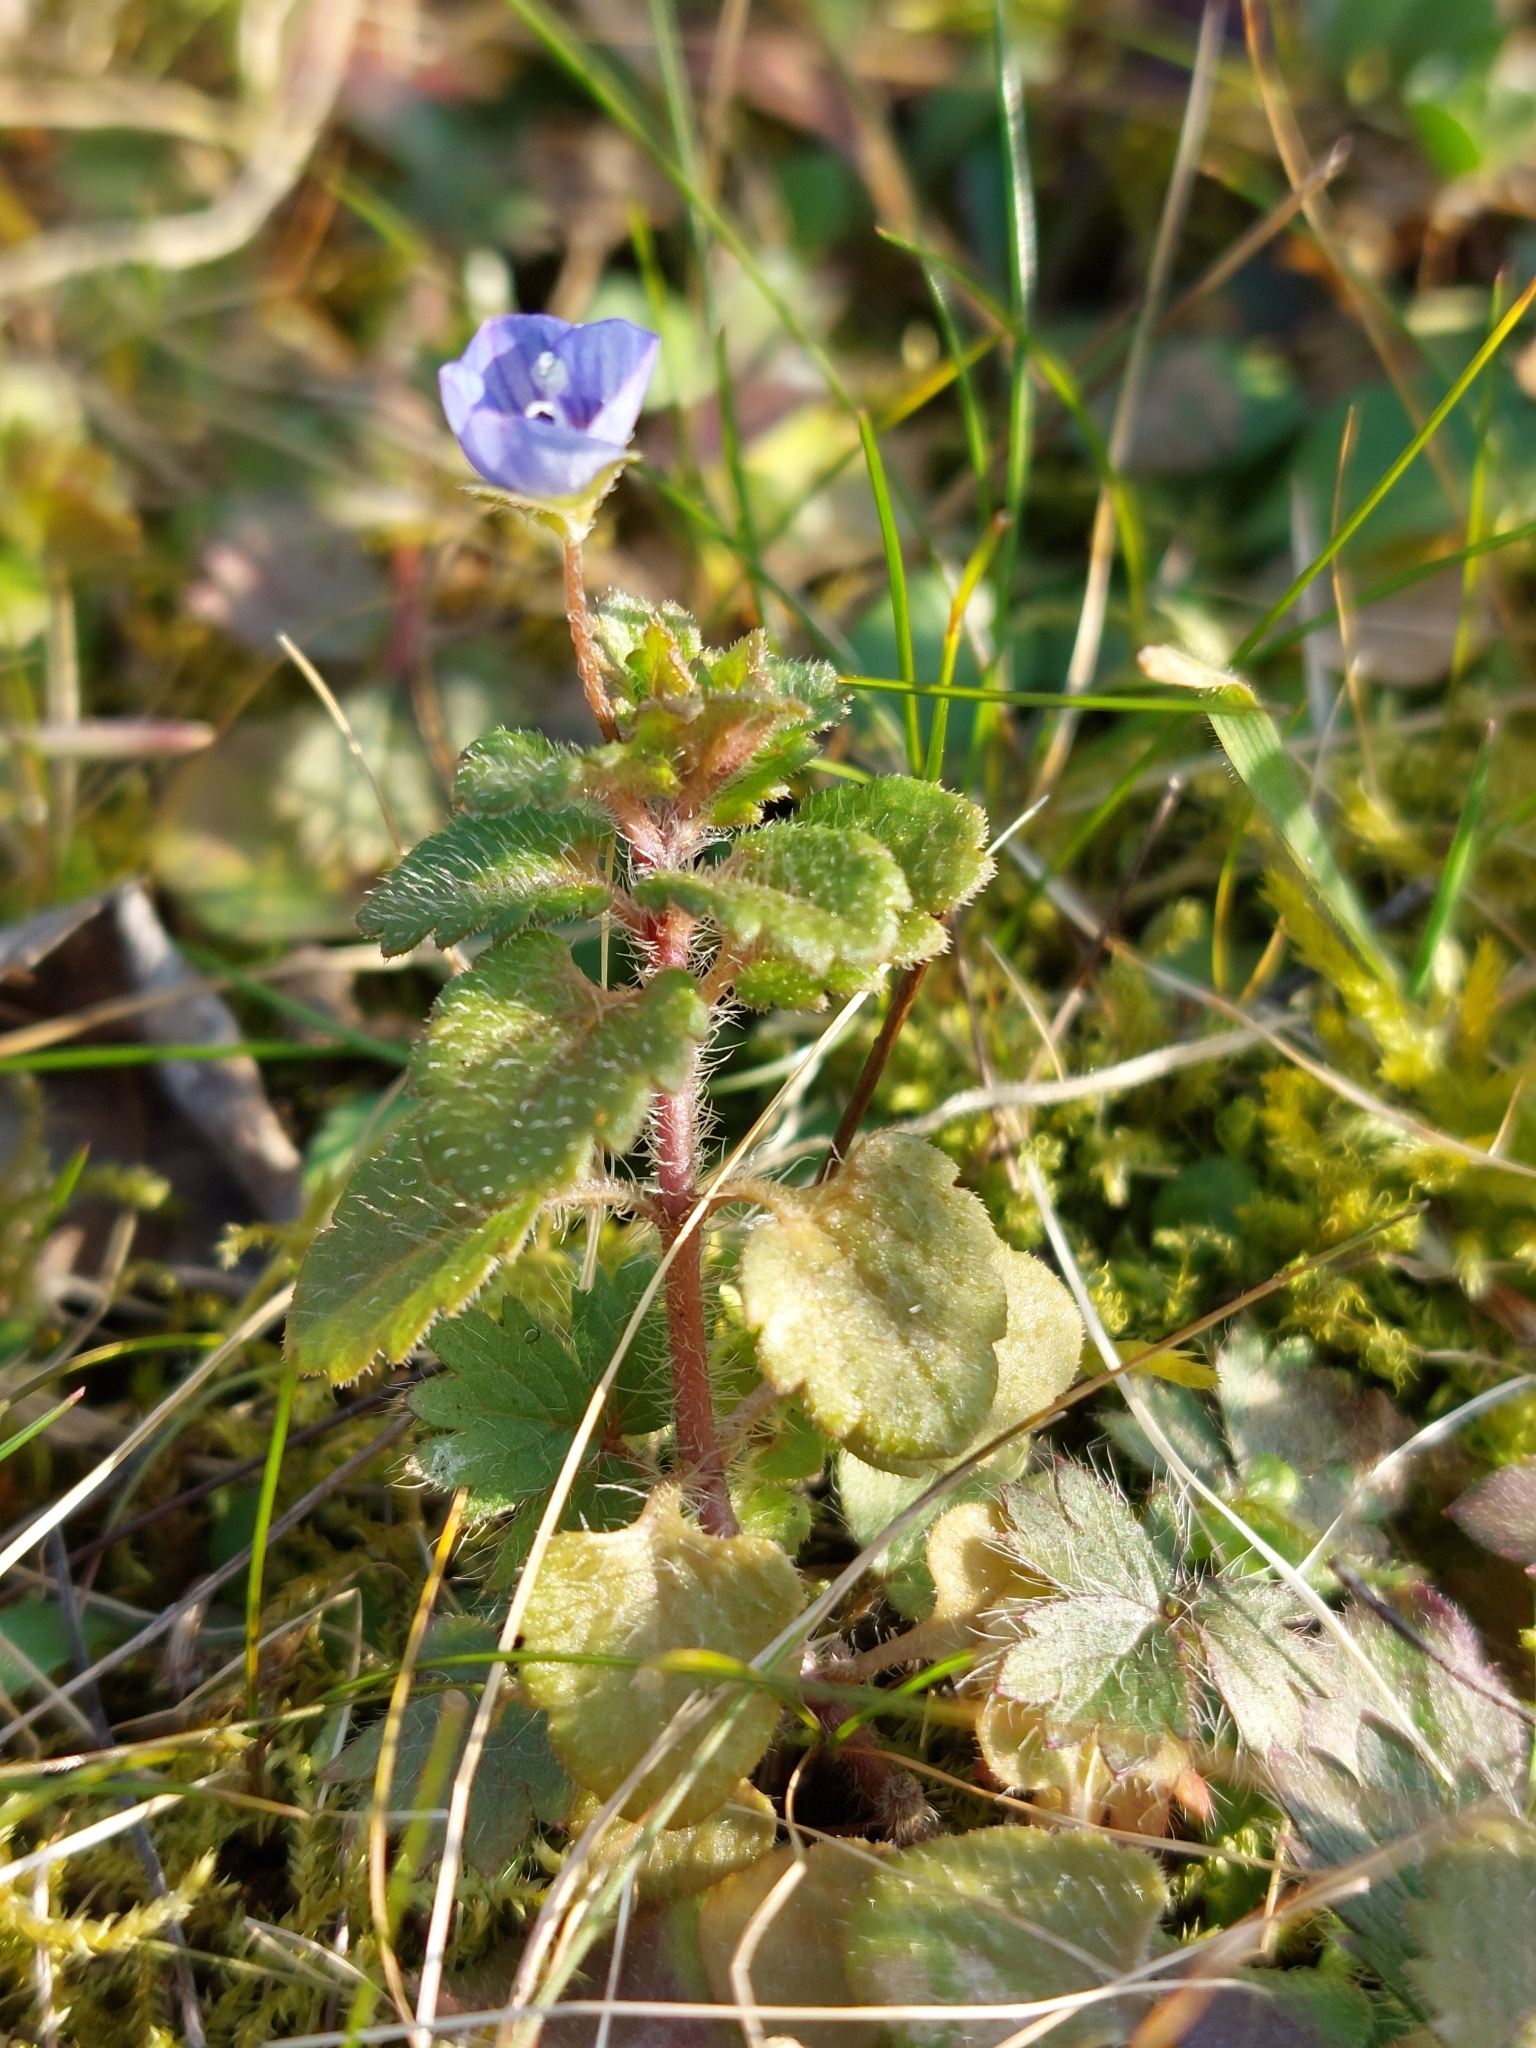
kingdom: Plantae
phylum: Tracheophyta
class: Magnoliopsida
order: Lamiales
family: Plantaginaceae
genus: Veronica
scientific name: Veronica persica
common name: Common field-speedwell
